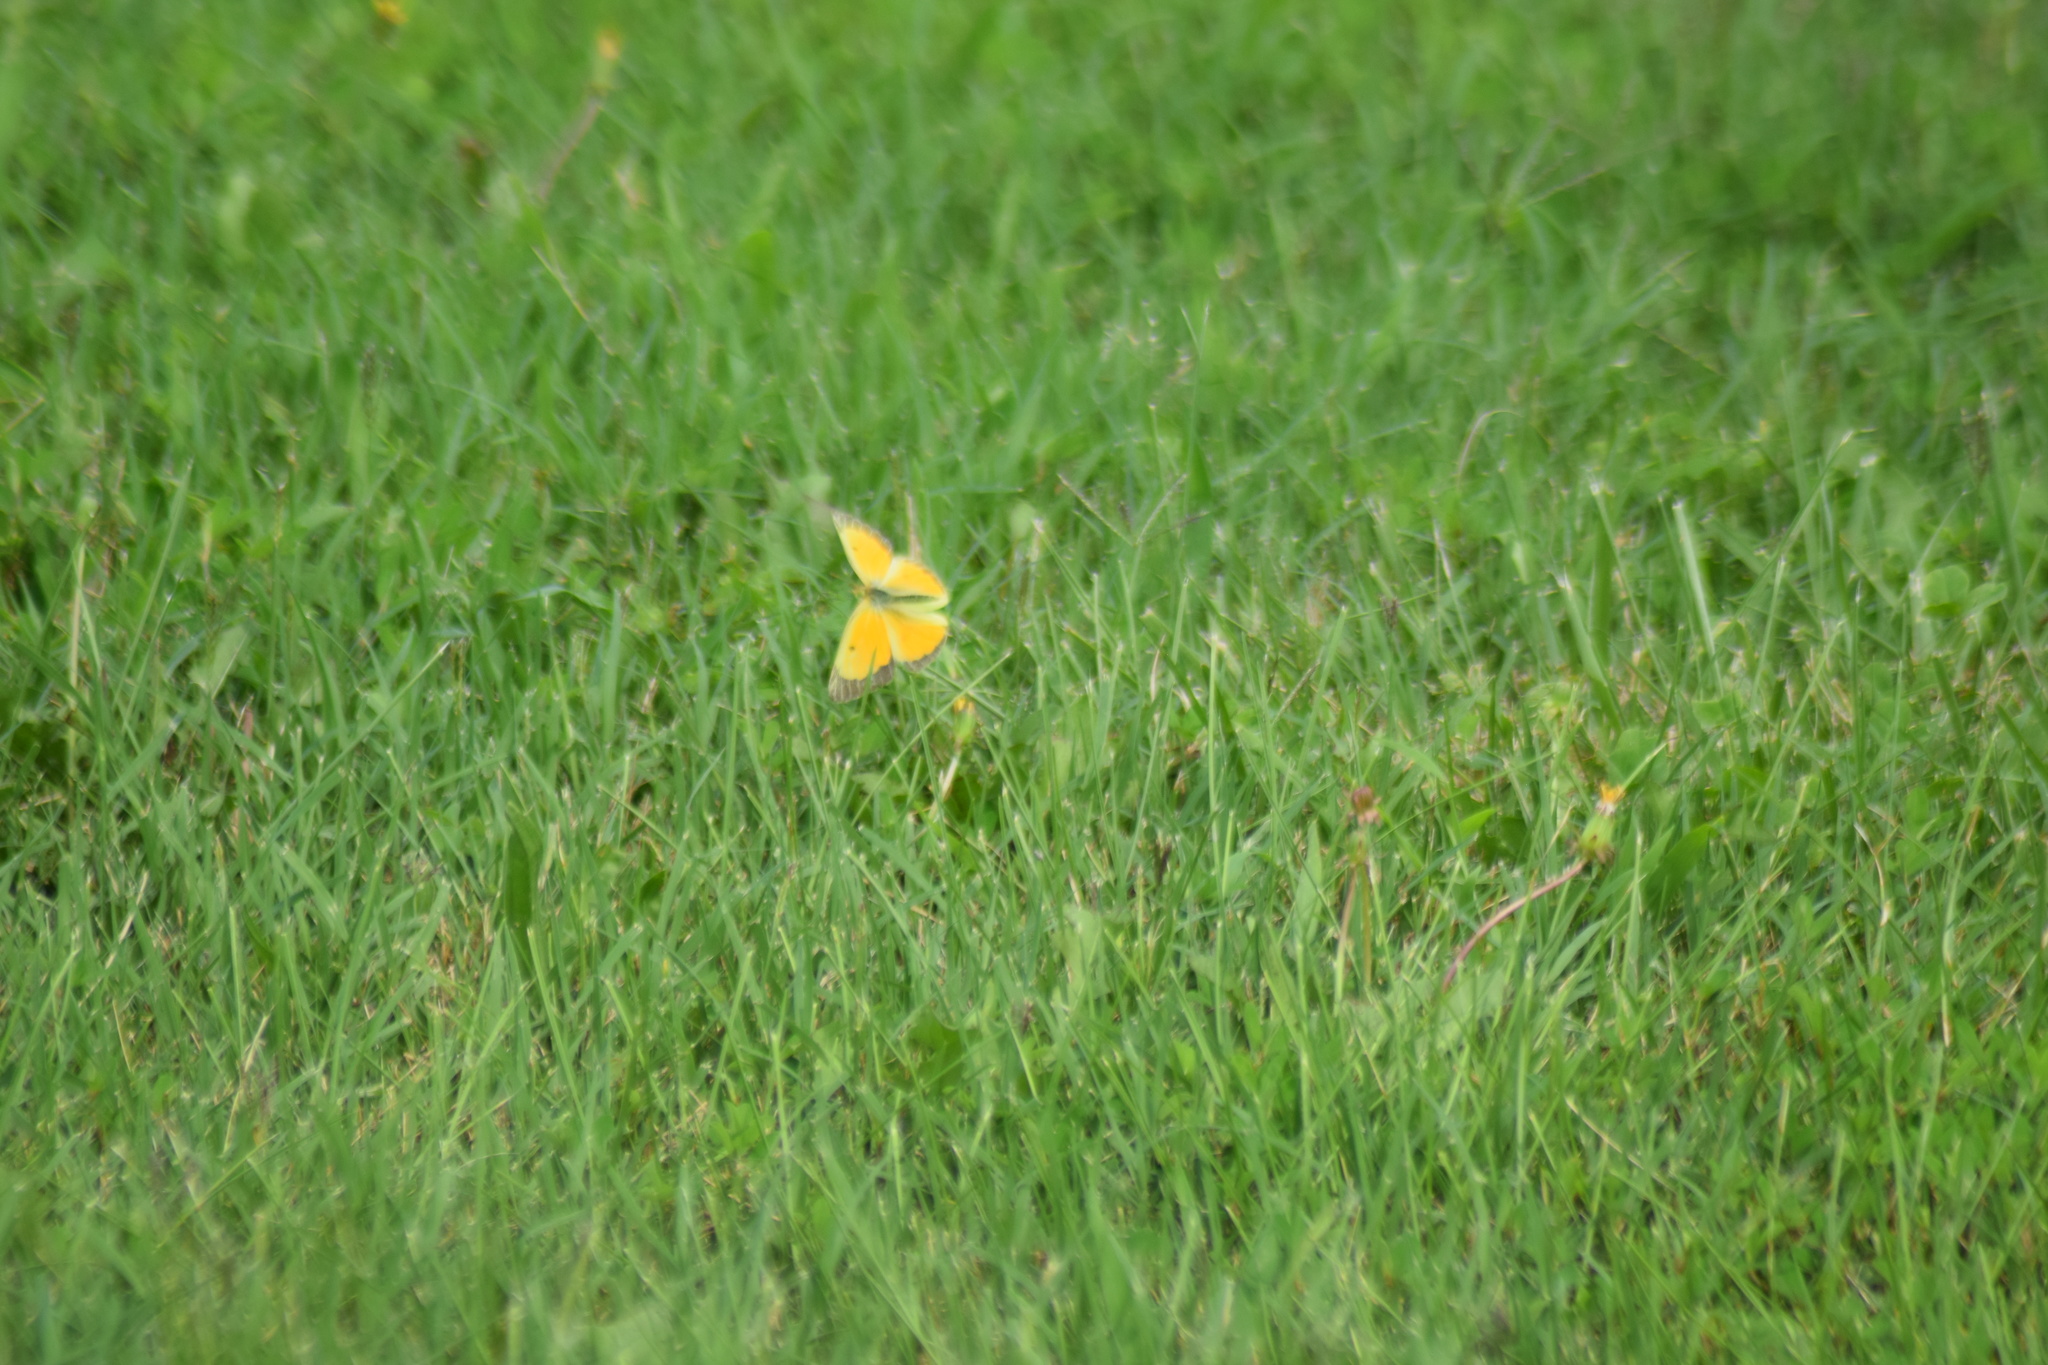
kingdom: Animalia
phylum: Arthropoda
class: Insecta
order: Lepidoptera
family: Pieridae
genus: Colias
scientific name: Colias eurytheme
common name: Alfalfa butterfly
